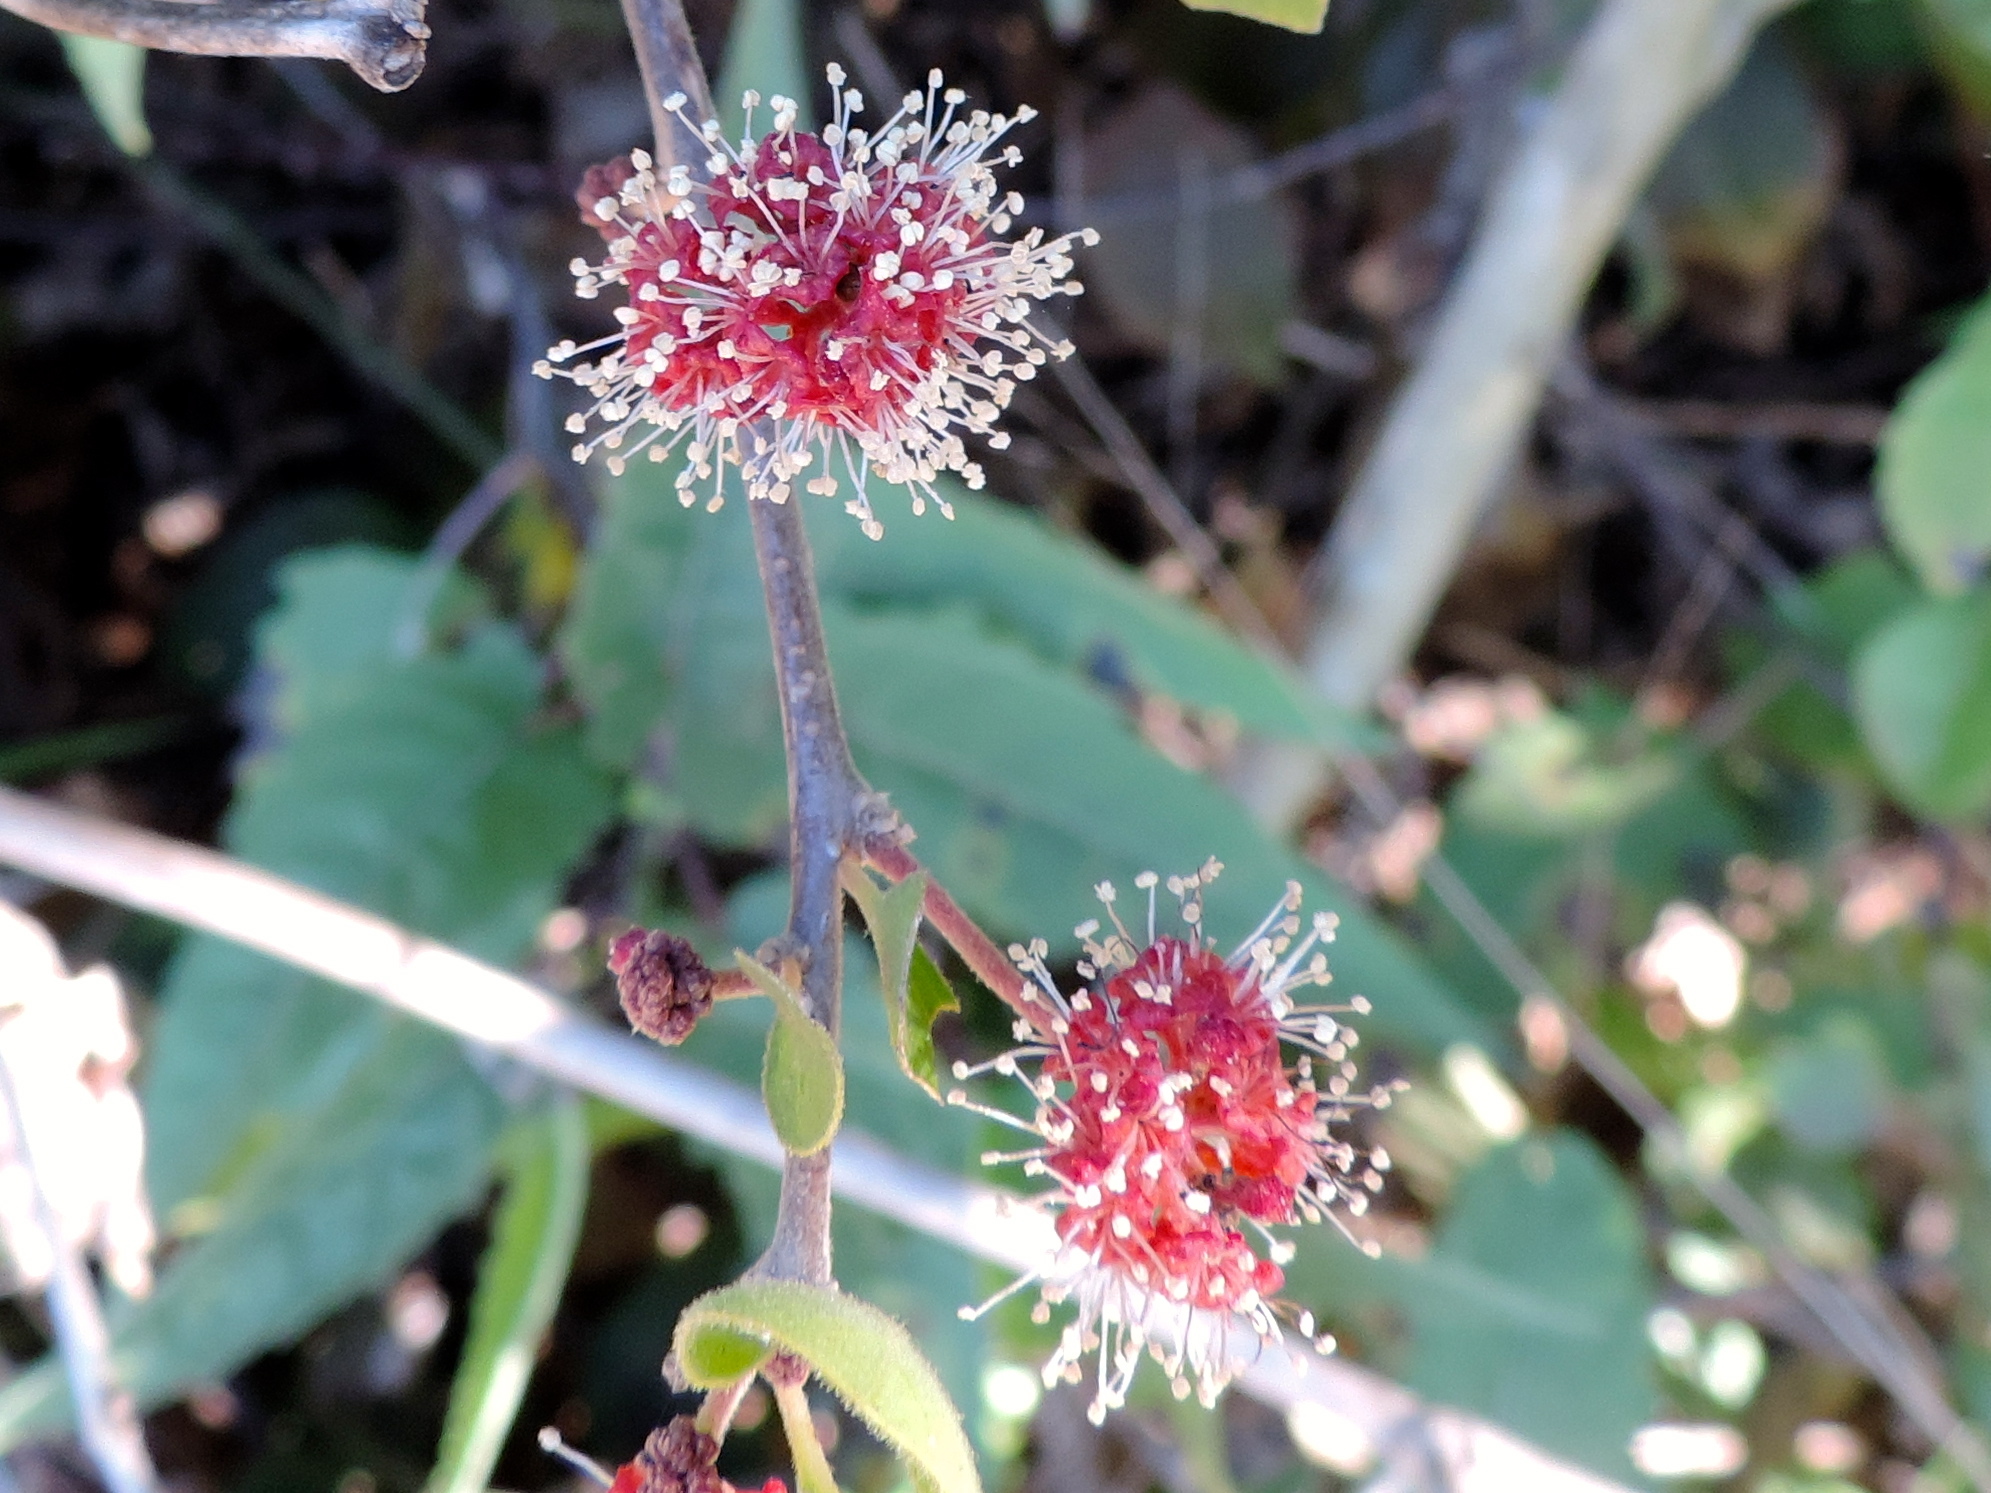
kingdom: Plantae
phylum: Tracheophyta
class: Magnoliopsida
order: Caryophyllales
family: Nyctaginaceae
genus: Pisonia
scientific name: Pisonia capitata
